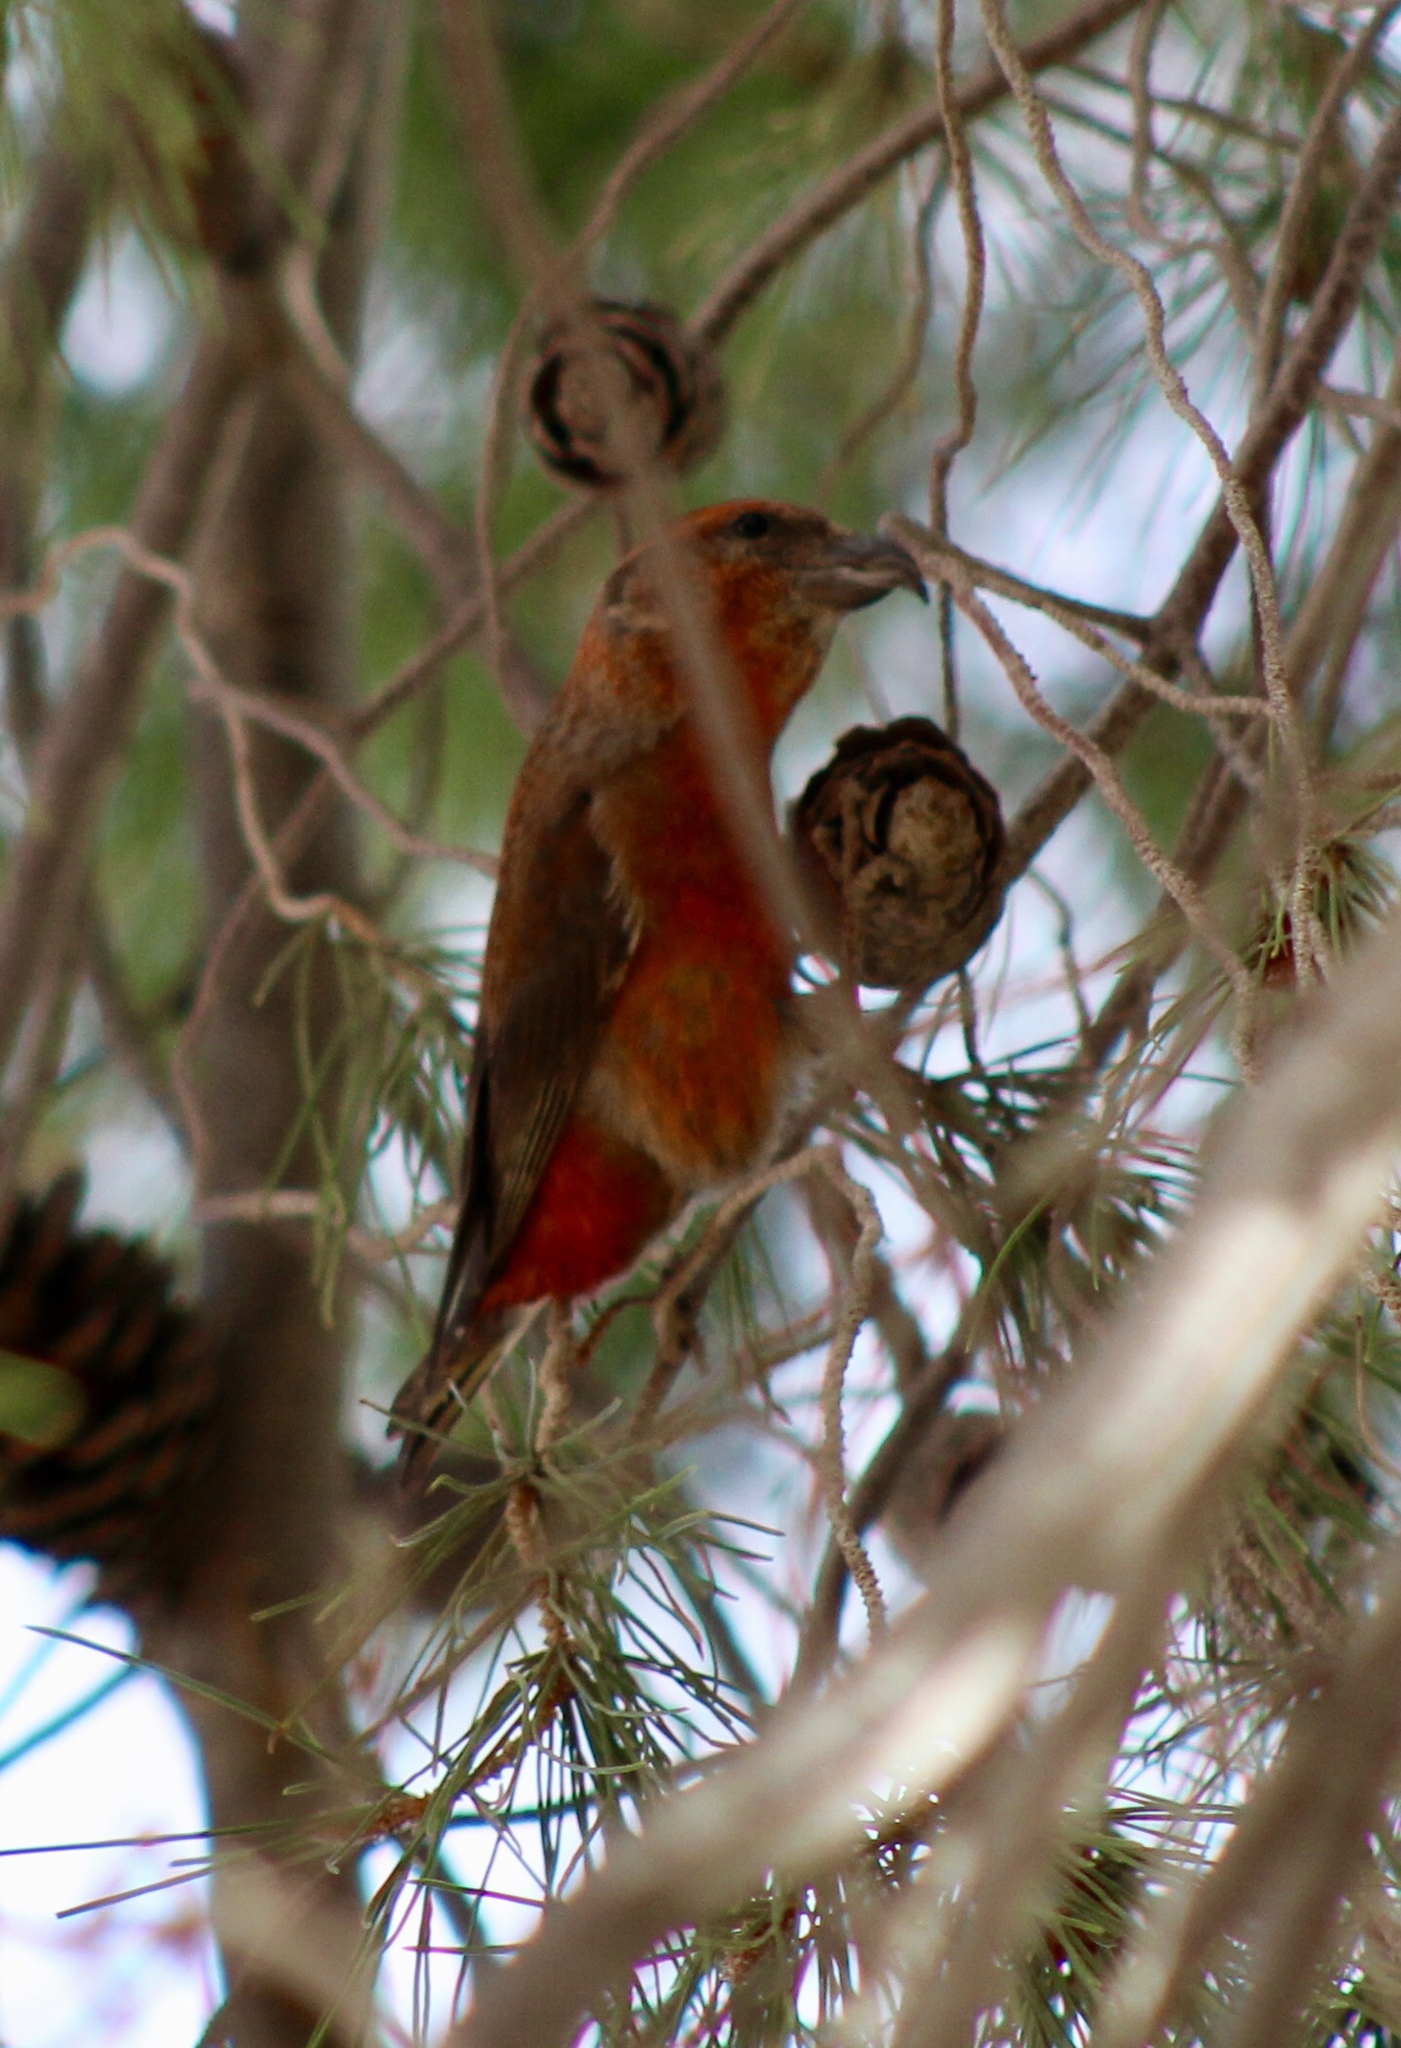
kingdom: Animalia
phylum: Chordata
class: Aves
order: Passeriformes
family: Fringillidae
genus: Loxia
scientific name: Loxia curvirostra
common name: Red crossbill
